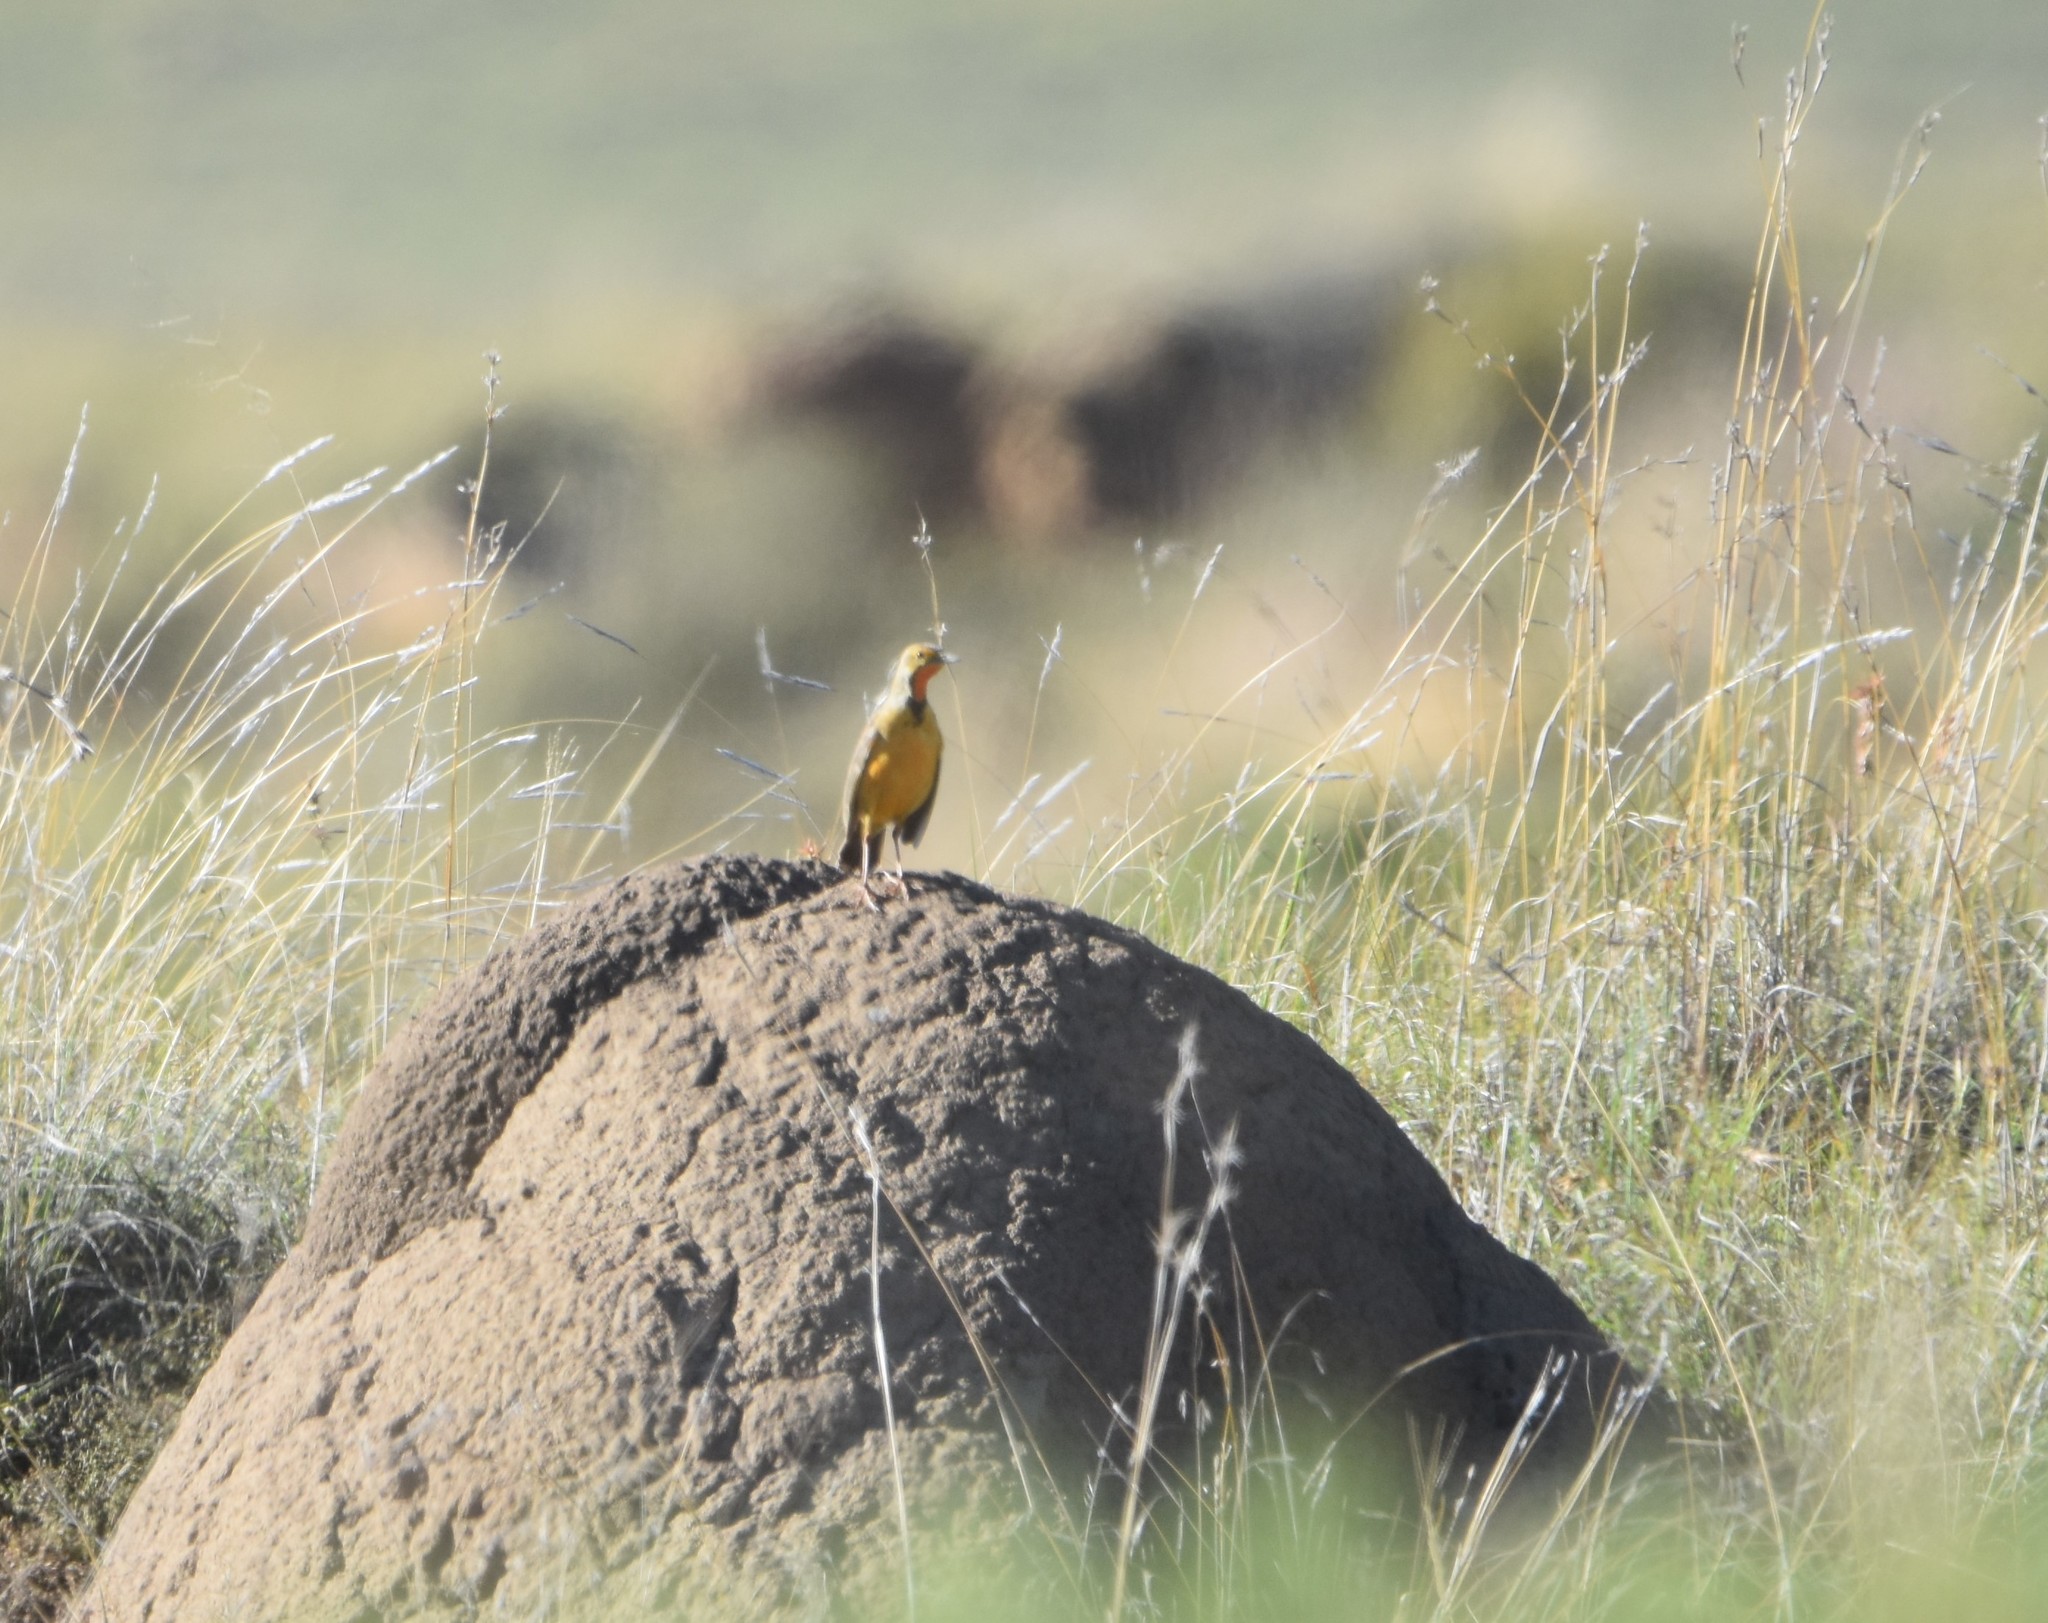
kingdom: Animalia
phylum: Chordata
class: Aves
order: Passeriformes
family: Motacillidae
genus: Macronyx
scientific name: Macronyx capensis
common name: Cape longclaw
